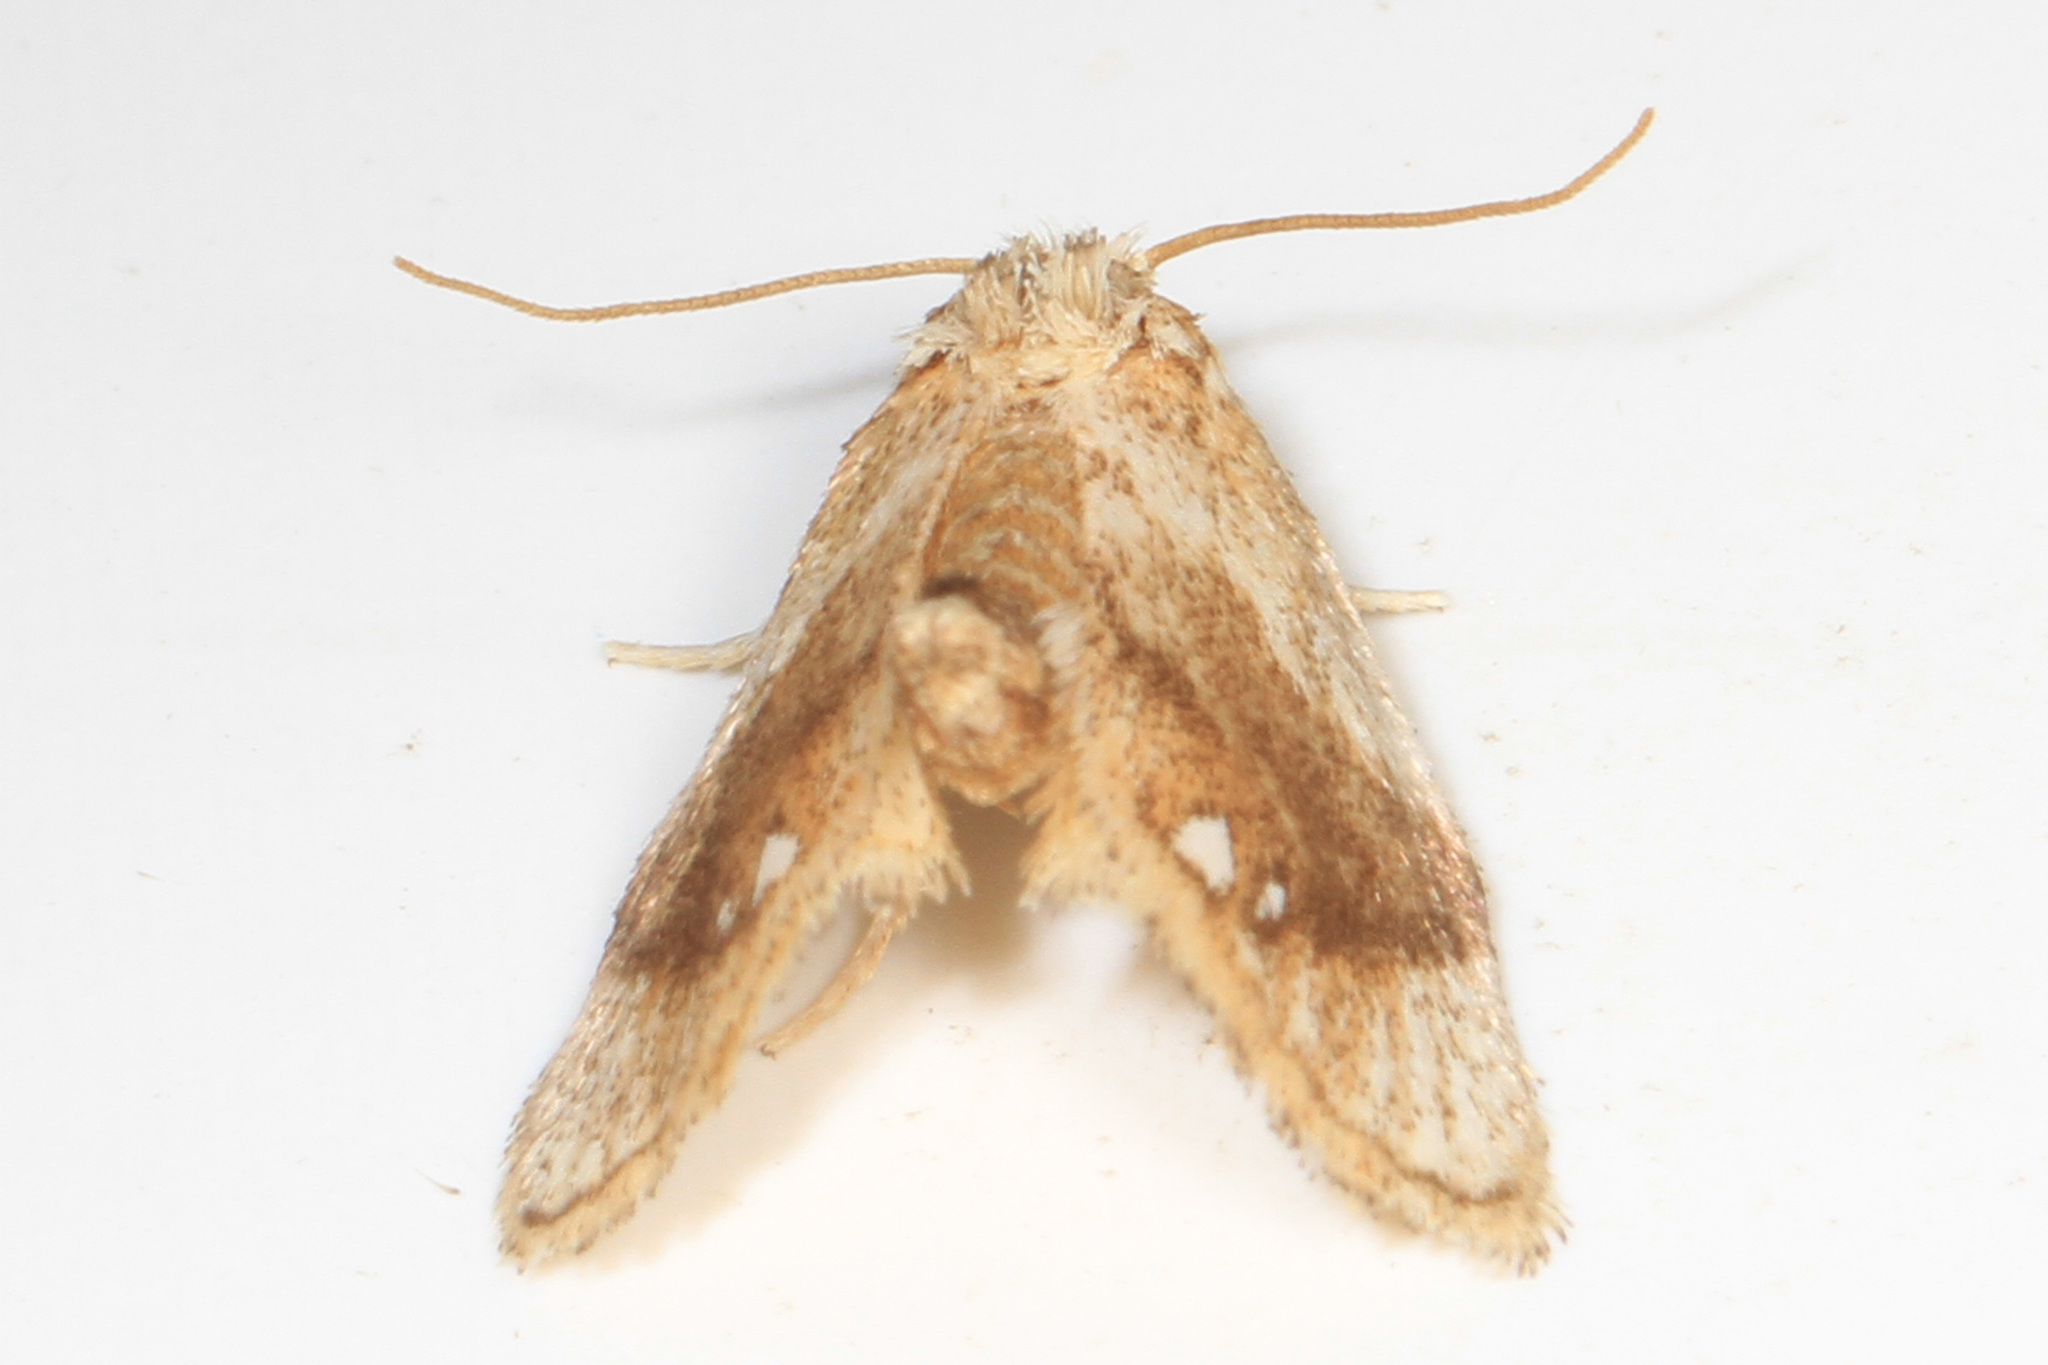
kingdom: Animalia
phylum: Arthropoda
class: Insecta
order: Lepidoptera
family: Limacodidae
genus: Packardia
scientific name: Packardia geminata
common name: Jeweled tailed slug moth
